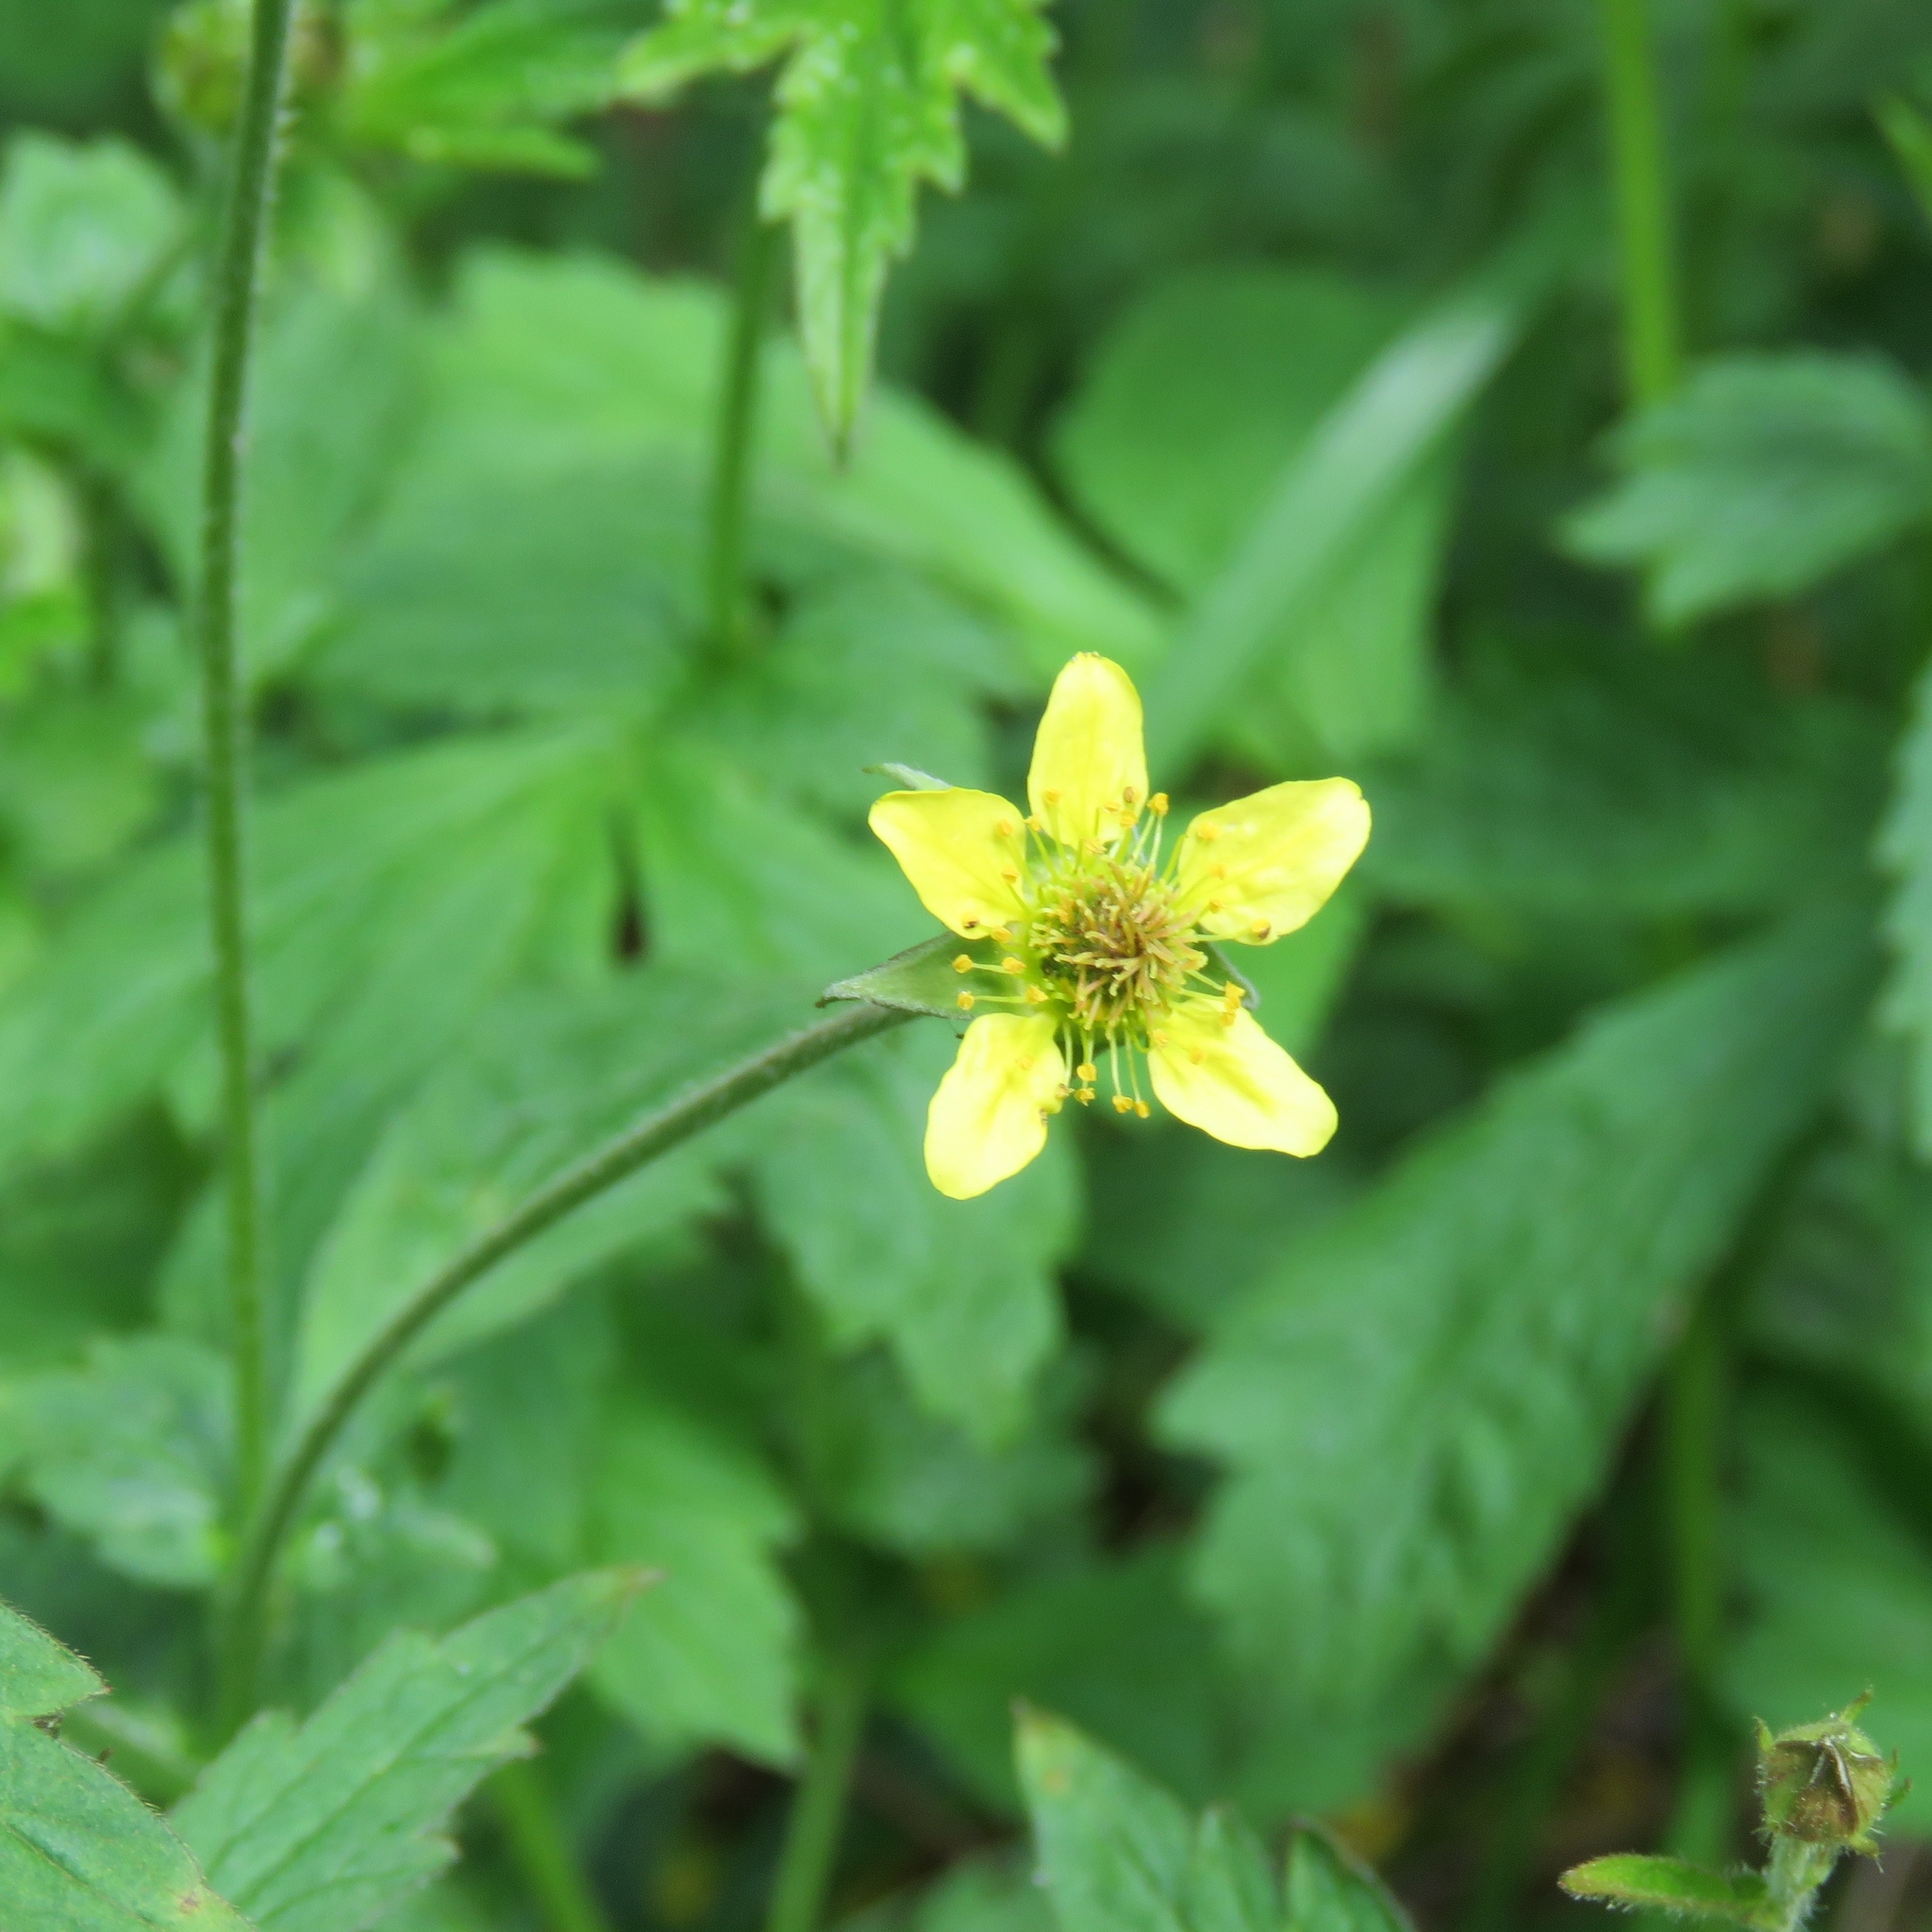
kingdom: Plantae
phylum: Tracheophyta
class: Magnoliopsida
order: Rosales
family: Rosaceae
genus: Geum
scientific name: Geum urbanum
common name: Wood avens
